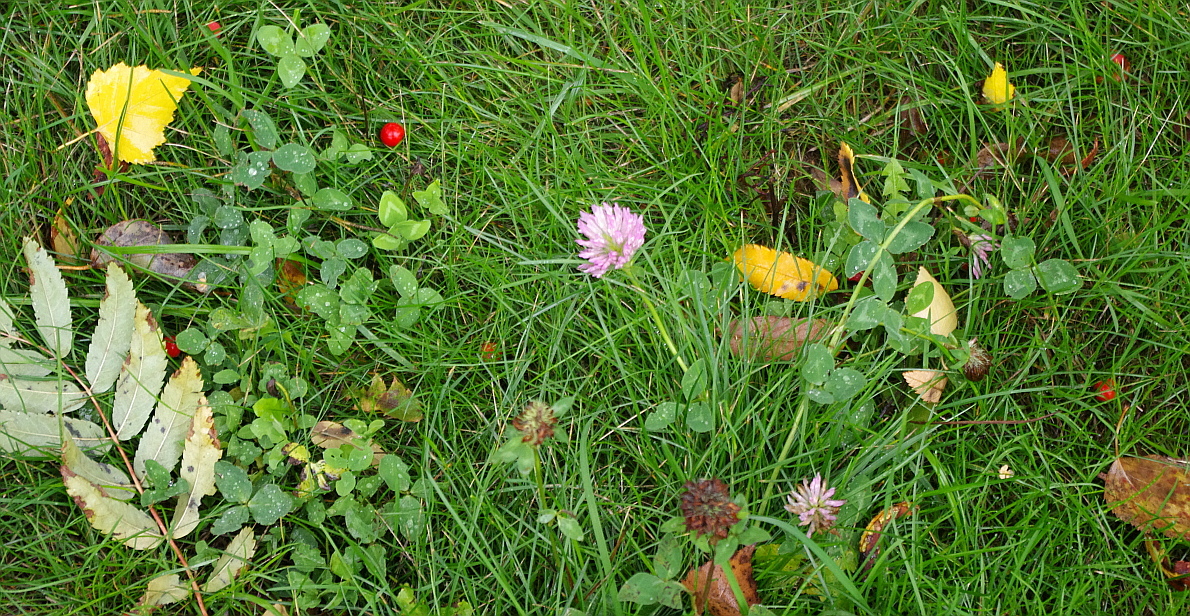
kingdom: Plantae
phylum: Tracheophyta
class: Magnoliopsida
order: Fabales
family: Fabaceae
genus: Trifolium
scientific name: Trifolium pratense
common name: Red clover
